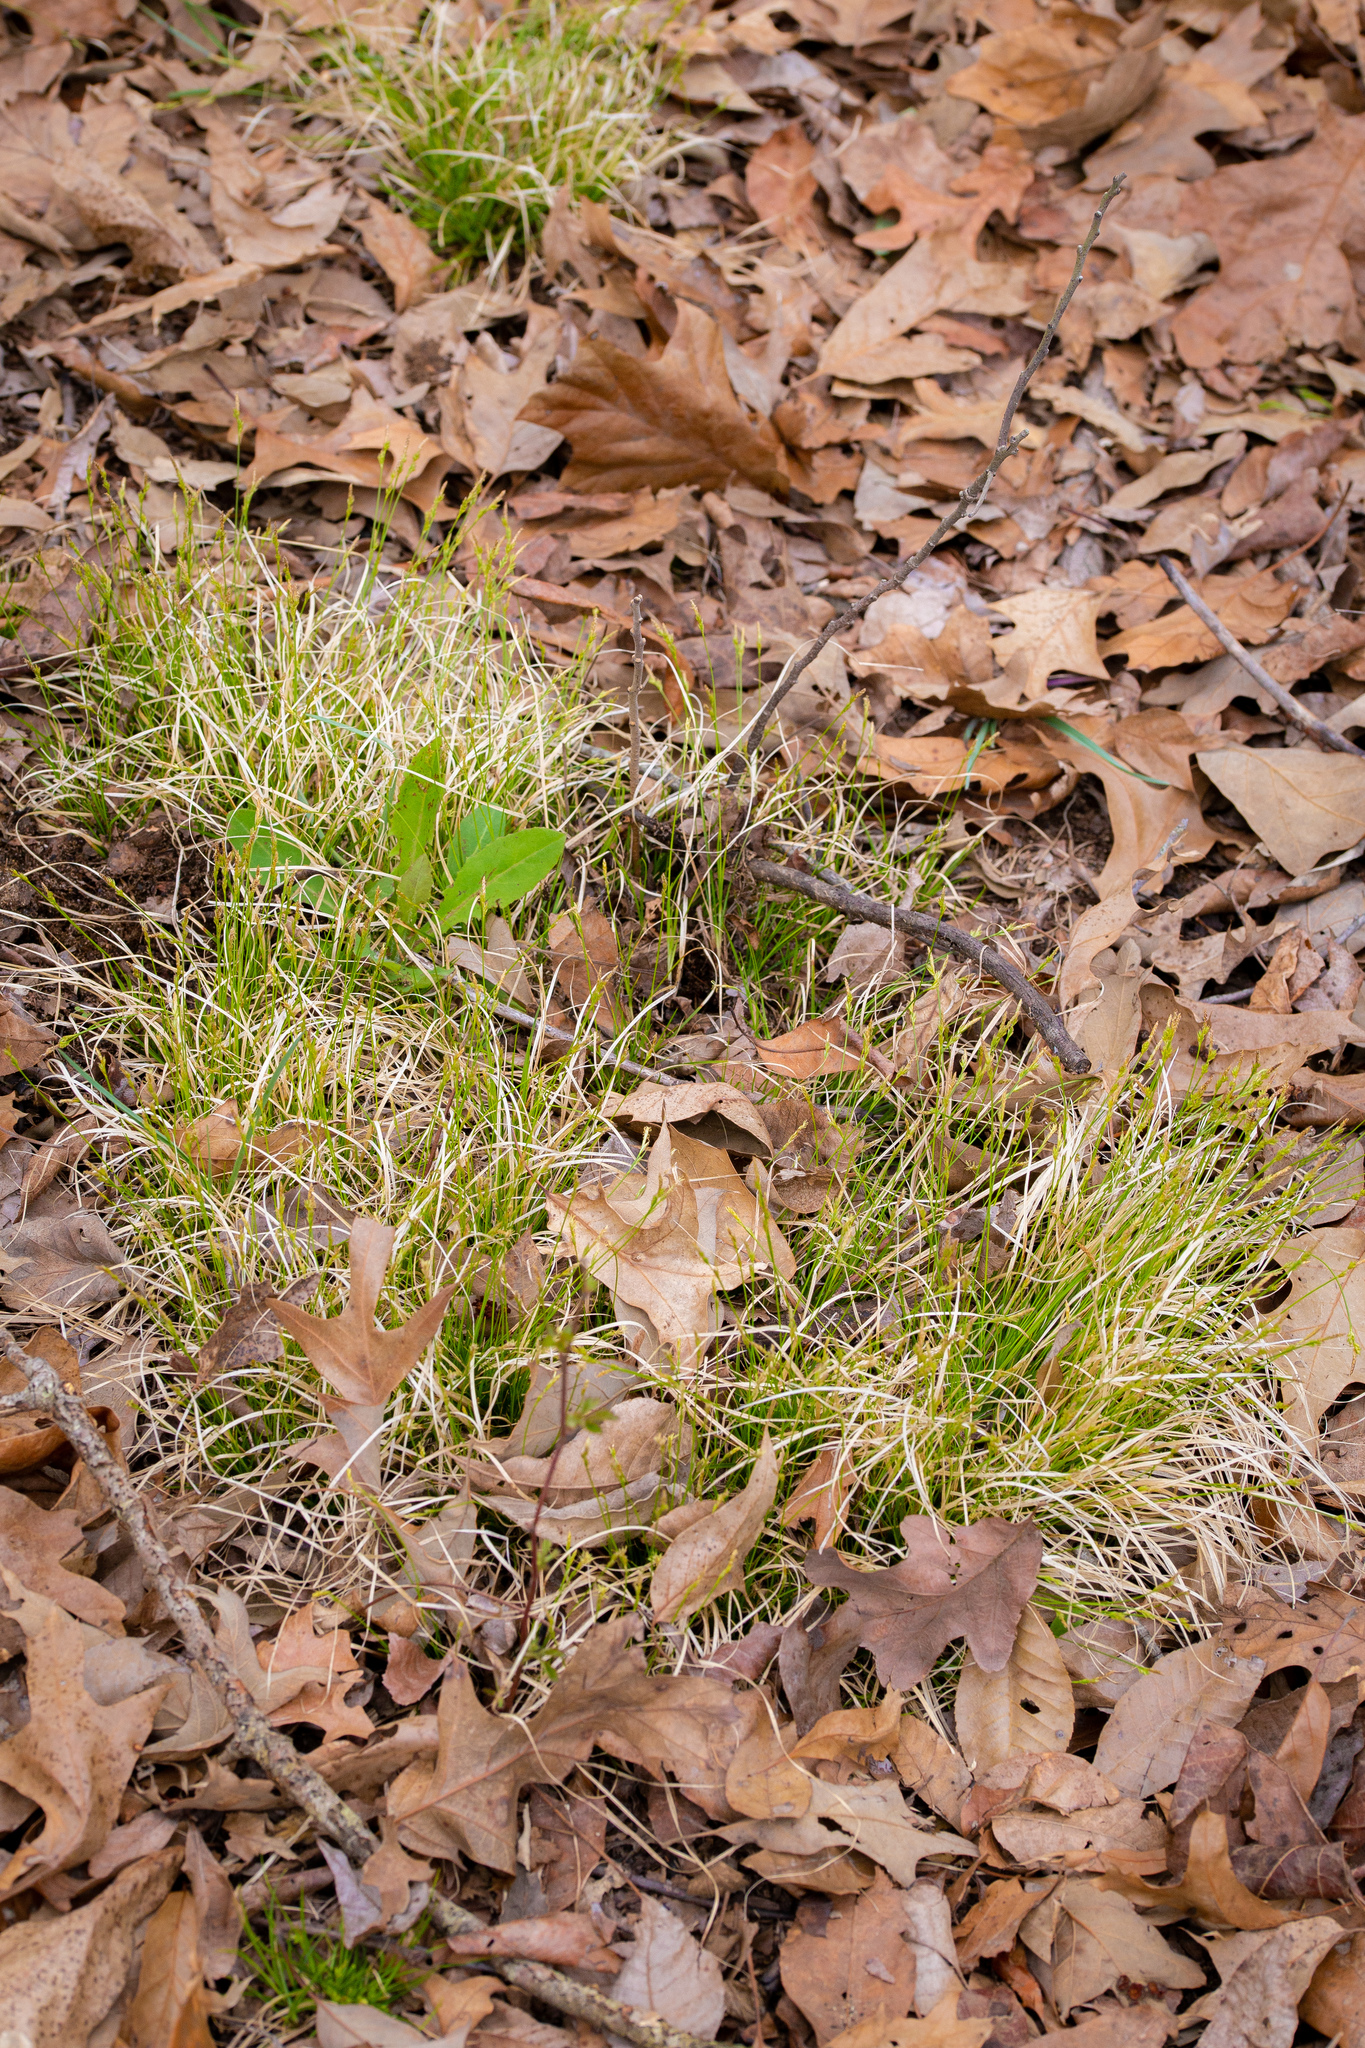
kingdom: Plantae
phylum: Tracheophyta
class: Liliopsida
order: Poales
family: Cyperaceae
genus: Carex
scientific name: Carex albicans
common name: Bellow-beaked sedge
